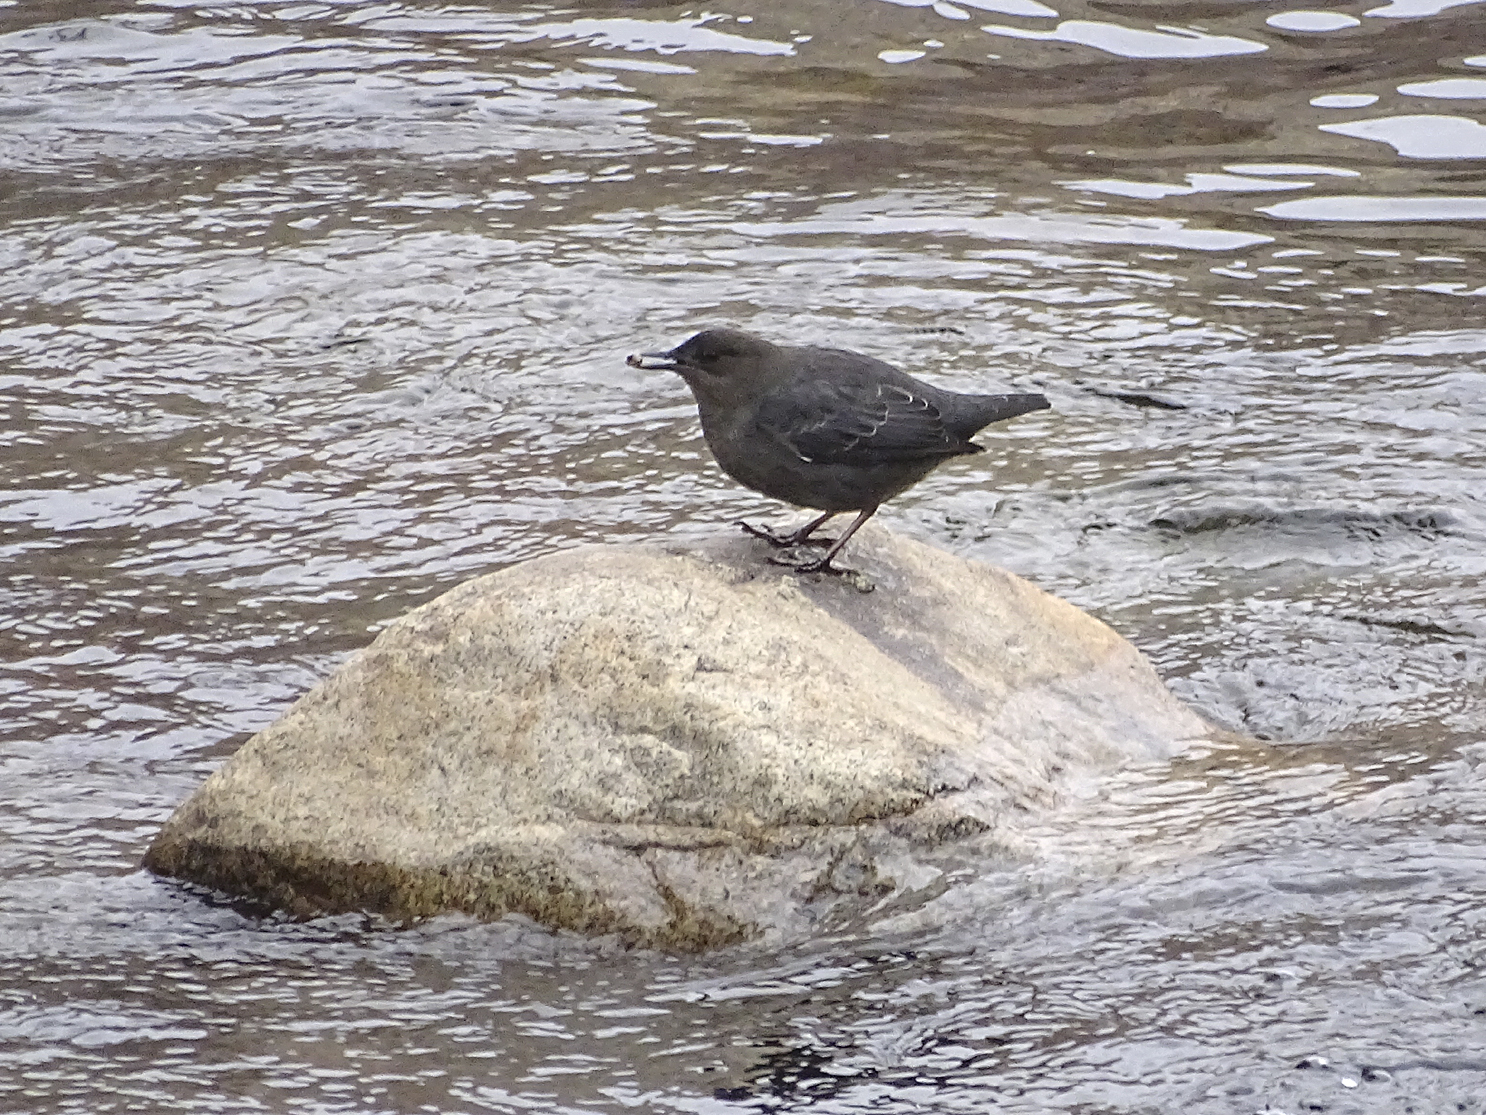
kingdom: Animalia
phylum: Chordata
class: Aves
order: Passeriformes
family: Cinclidae
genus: Cinclus
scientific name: Cinclus mexicanus
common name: American dipper
